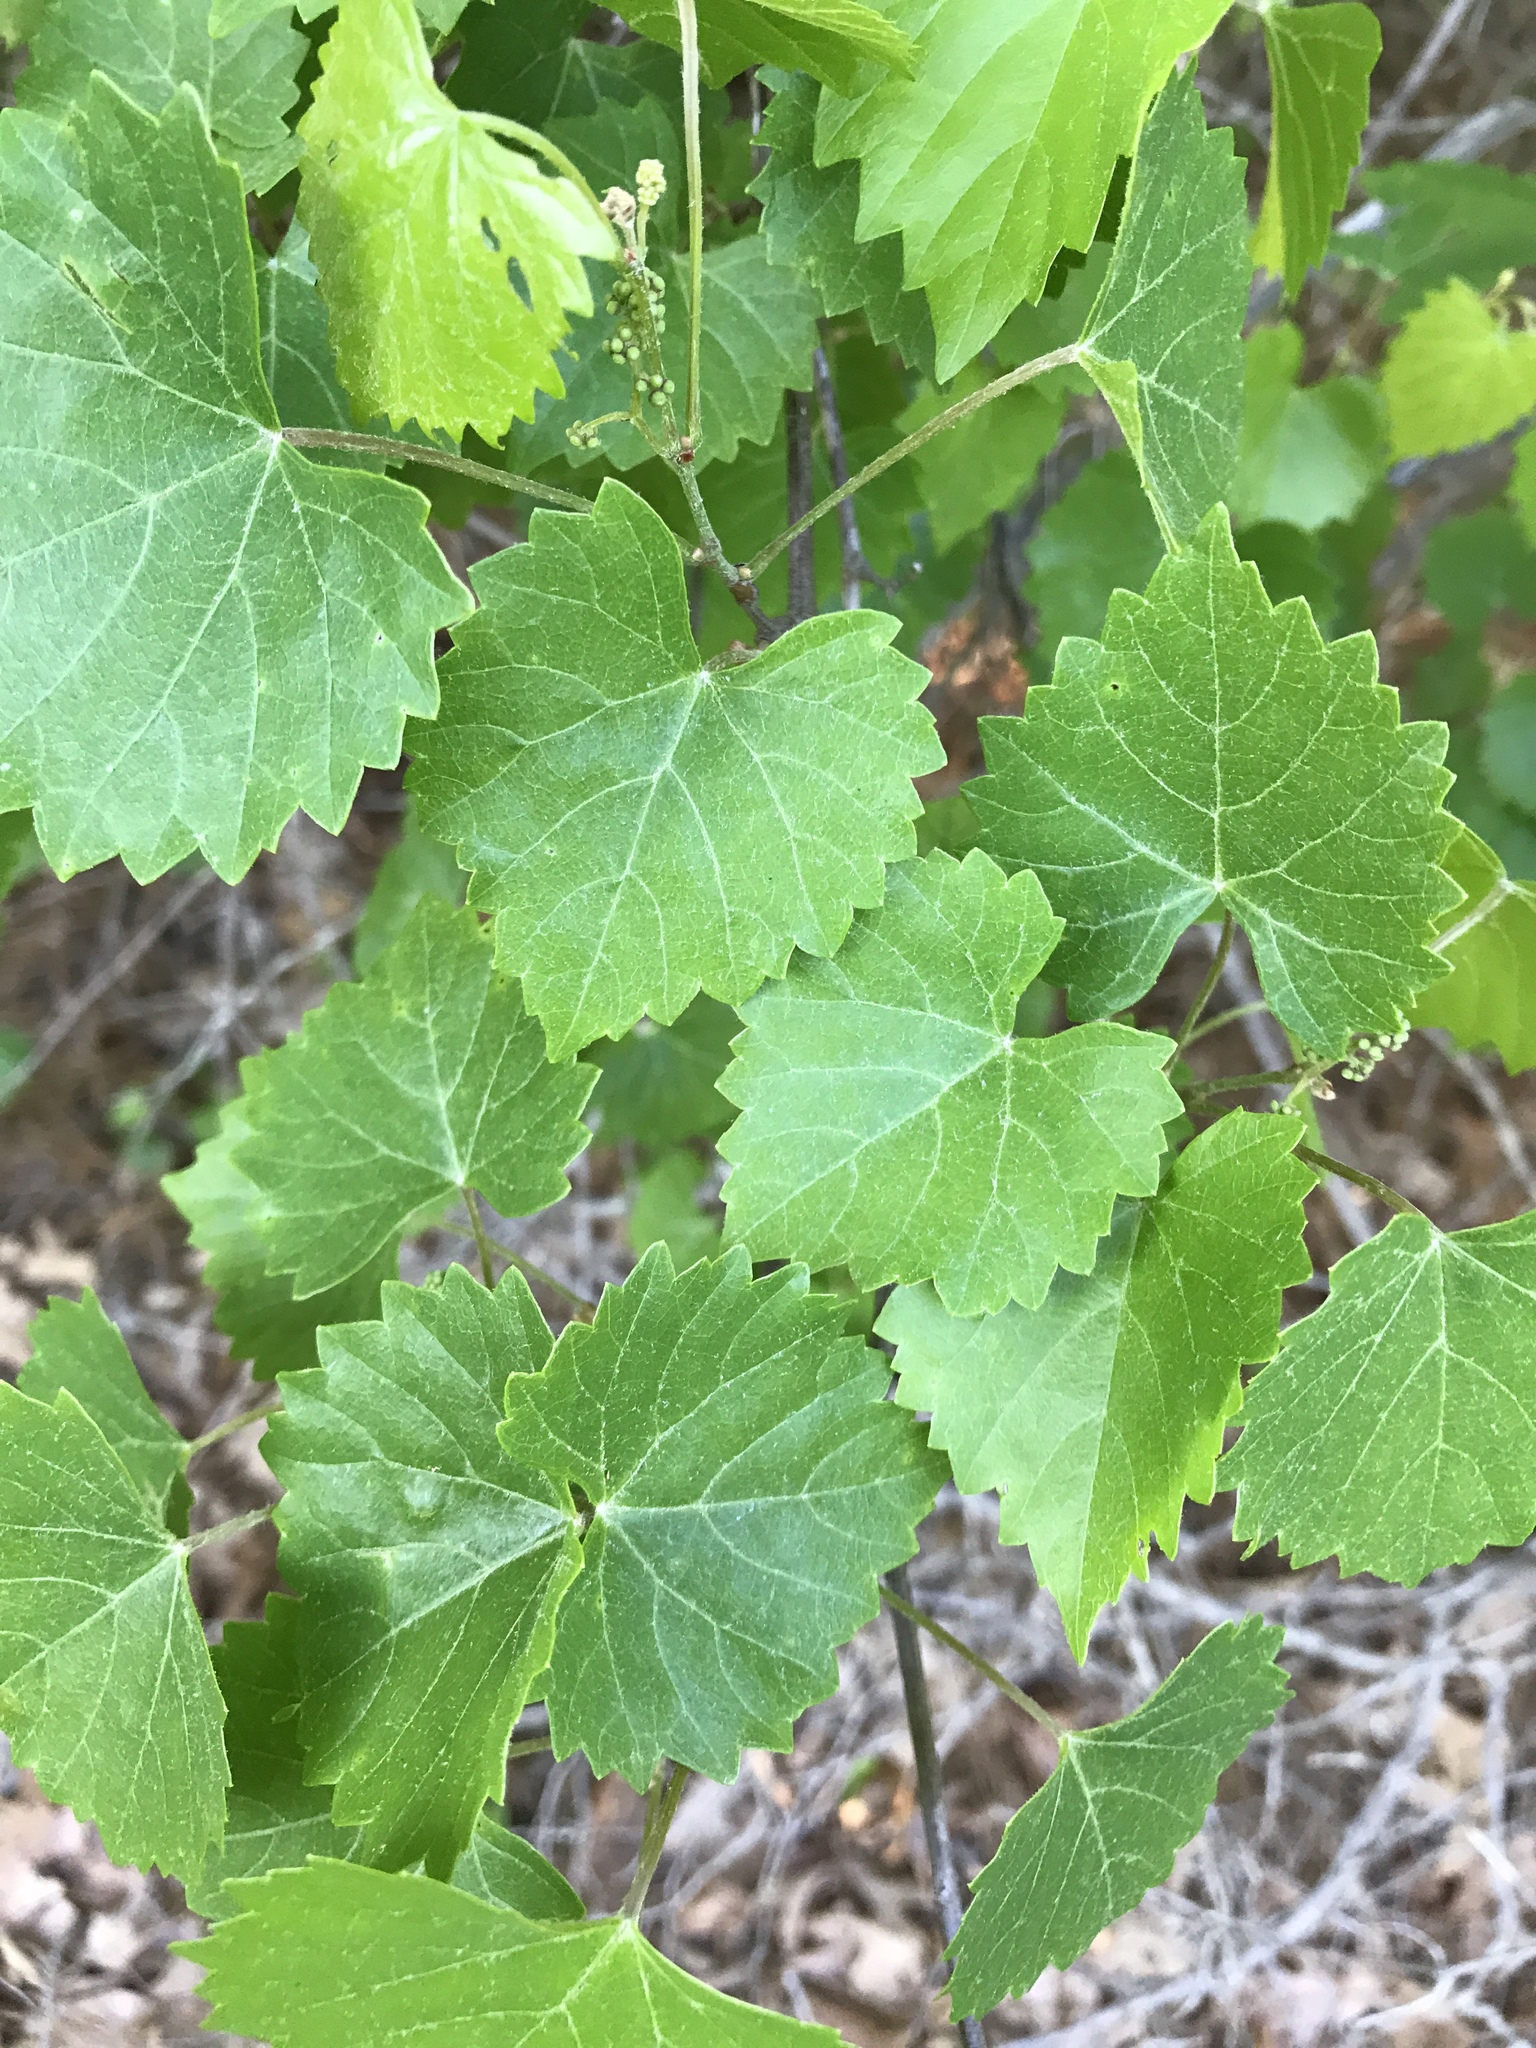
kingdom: Plantae
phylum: Tracheophyta
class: Magnoliopsida
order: Vitales
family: Vitaceae
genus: Vitis
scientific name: Vitis rotundifolia
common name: Muscadine grape
